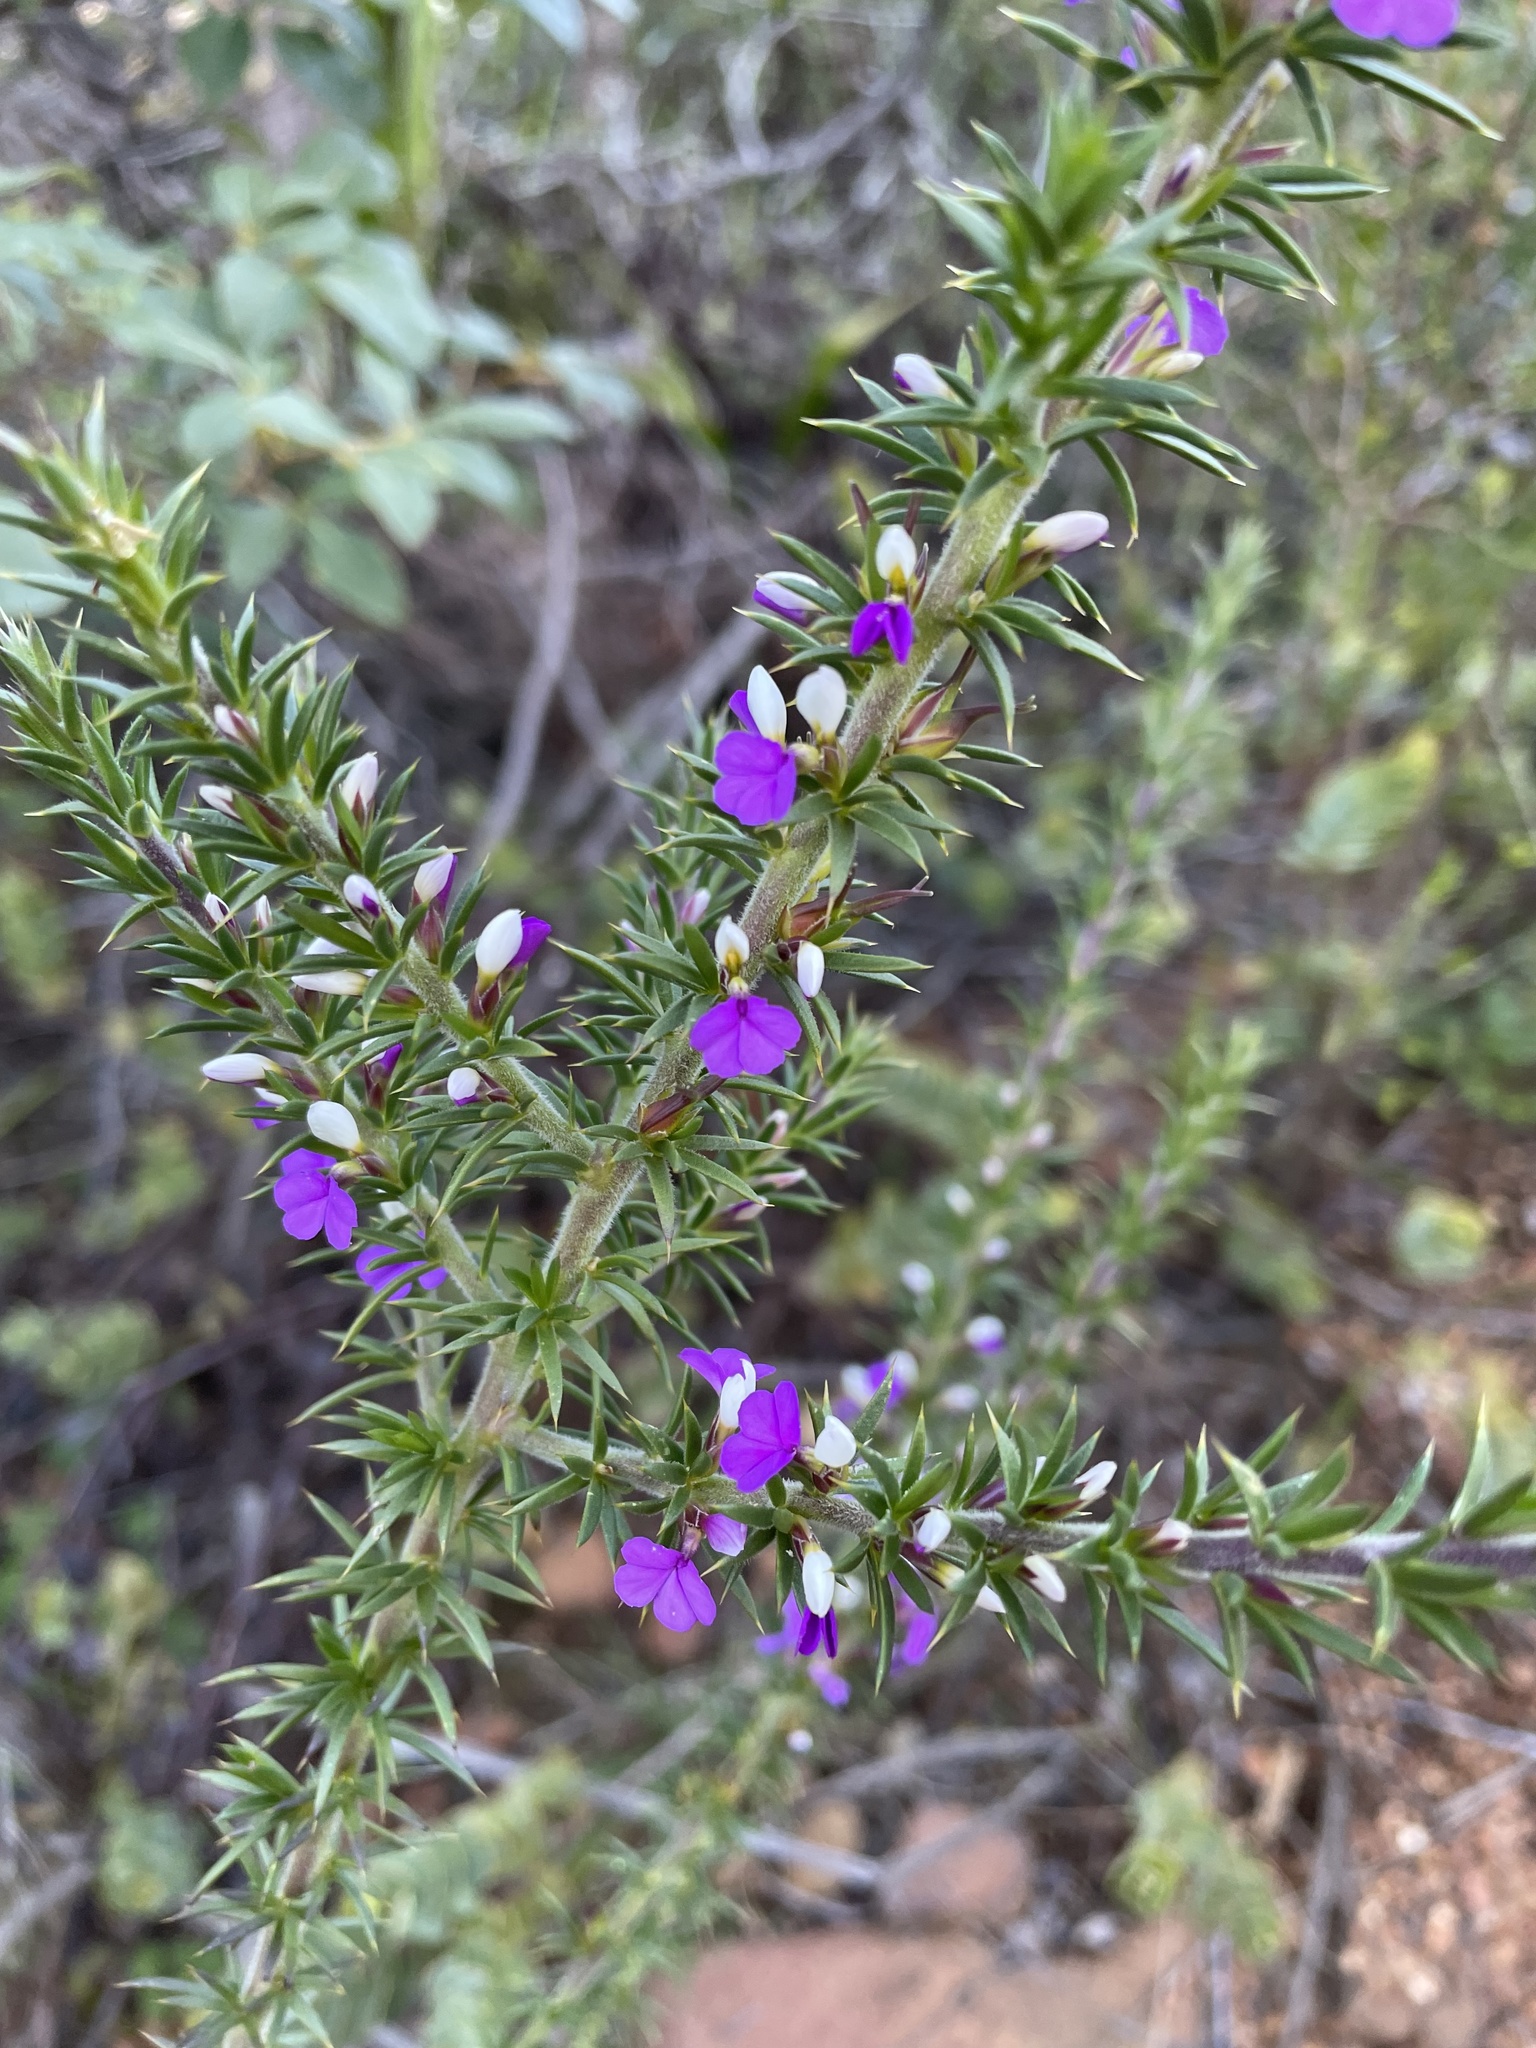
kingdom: Plantae
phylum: Tracheophyta
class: Magnoliopsida
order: Fabales
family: Polygalaceae
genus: Muraltia
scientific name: Muraltia heisteria
